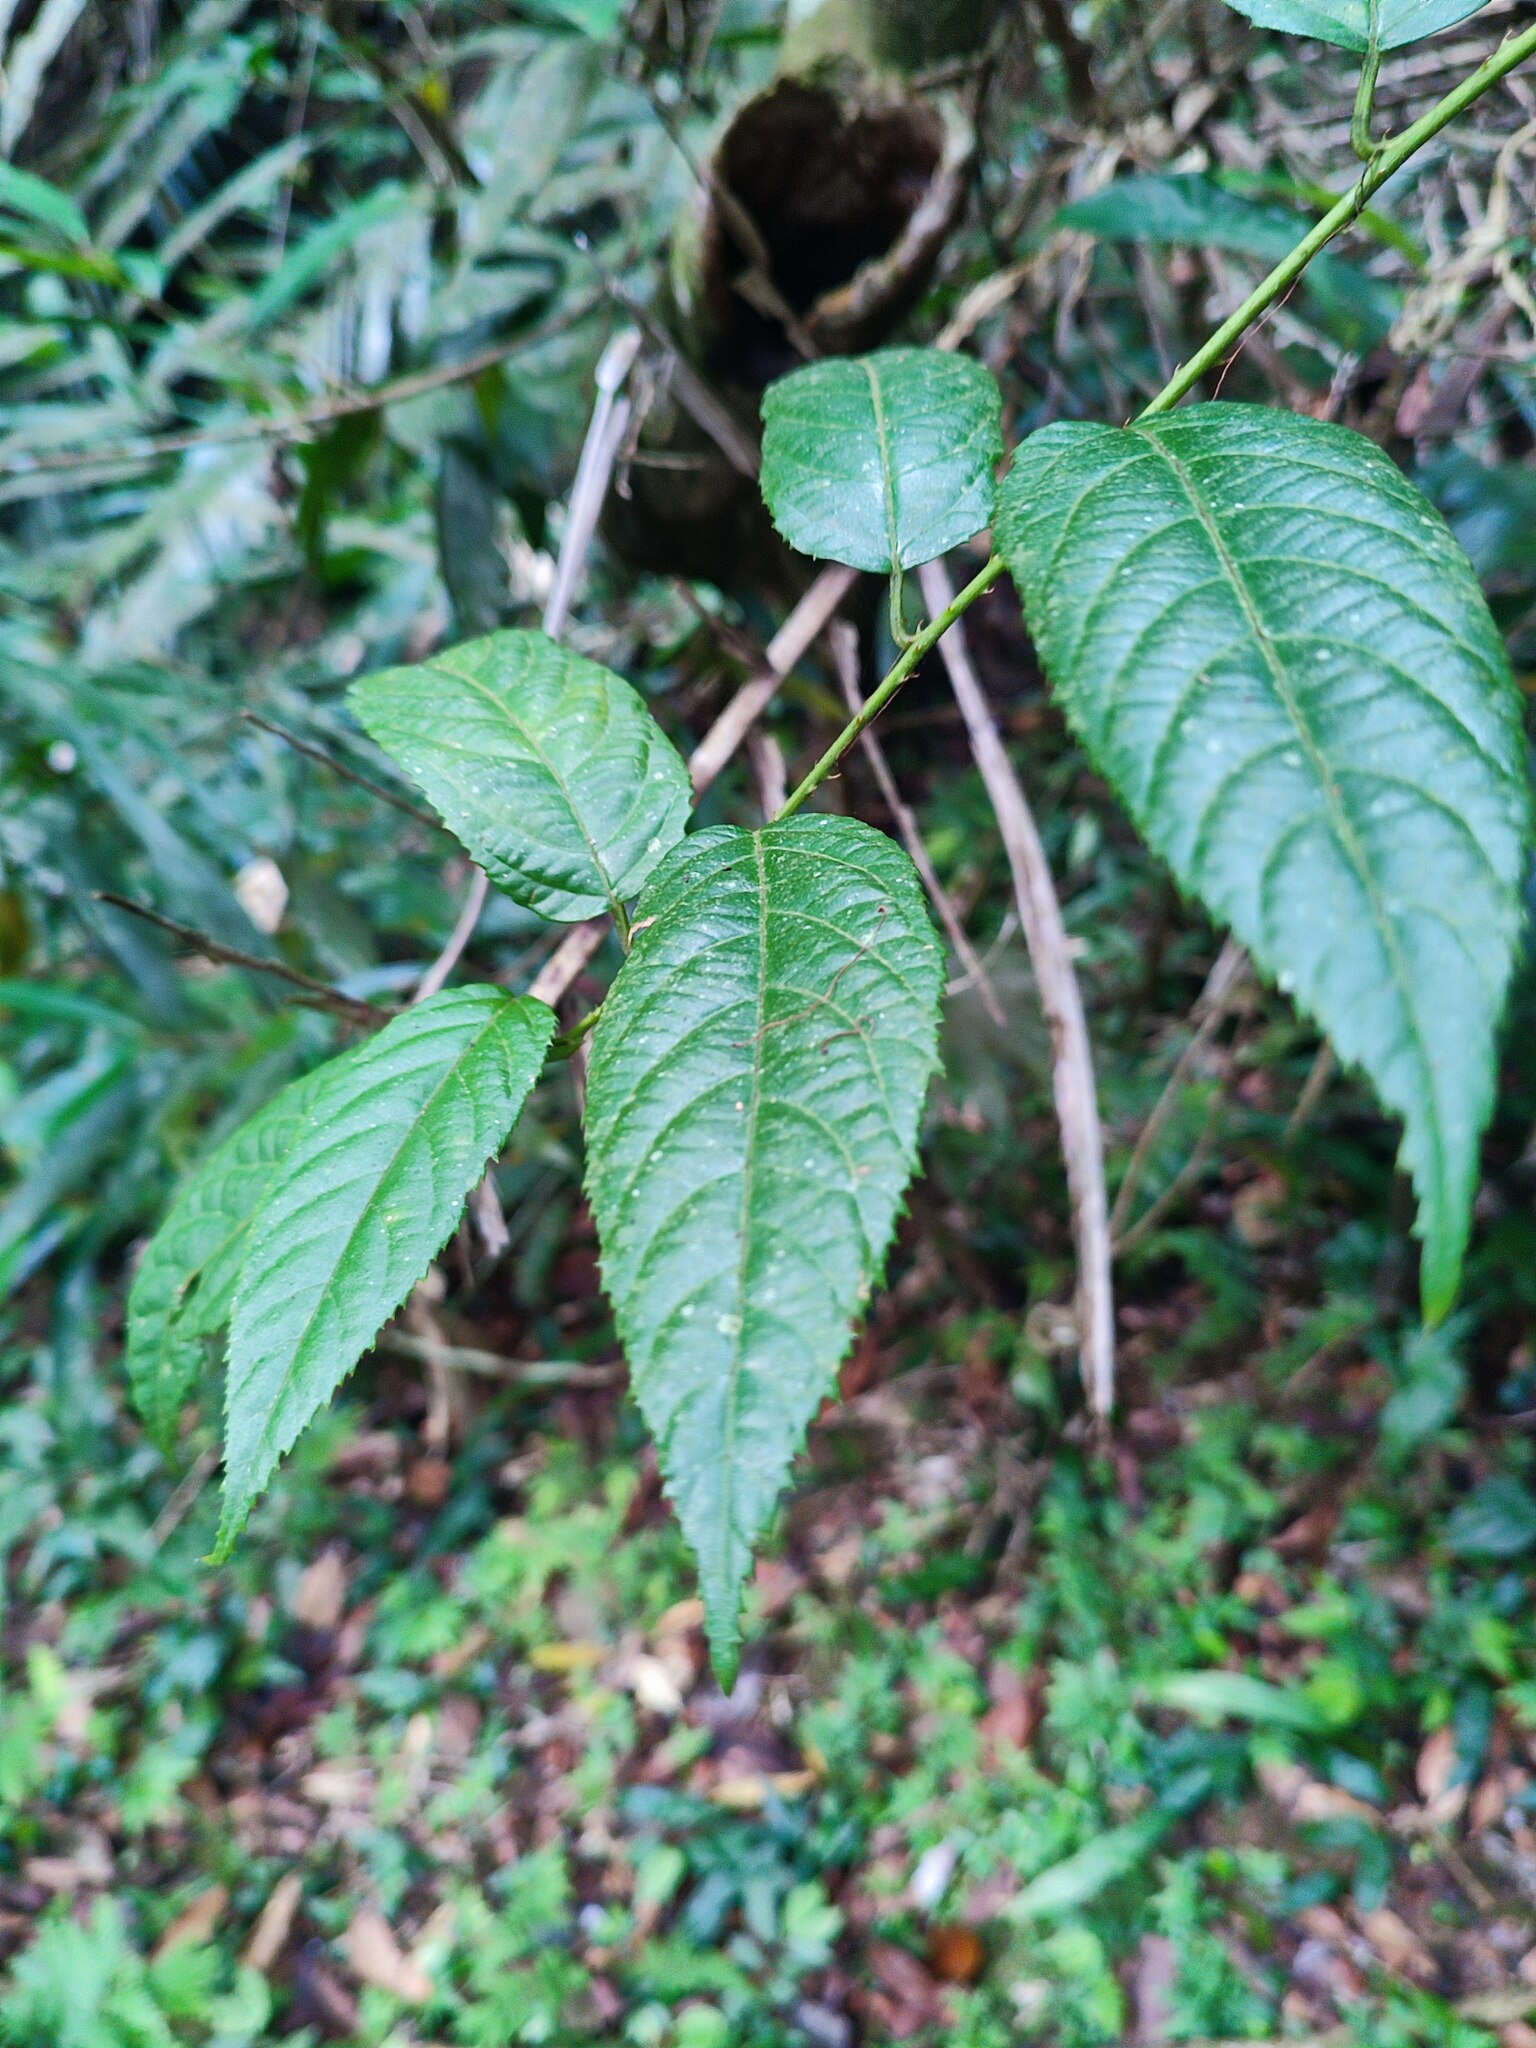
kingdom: Plantae
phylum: Tracheophyta
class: Magnoliopsida
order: Rosales
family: Rosaceae
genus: Rubus
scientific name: Rubus
